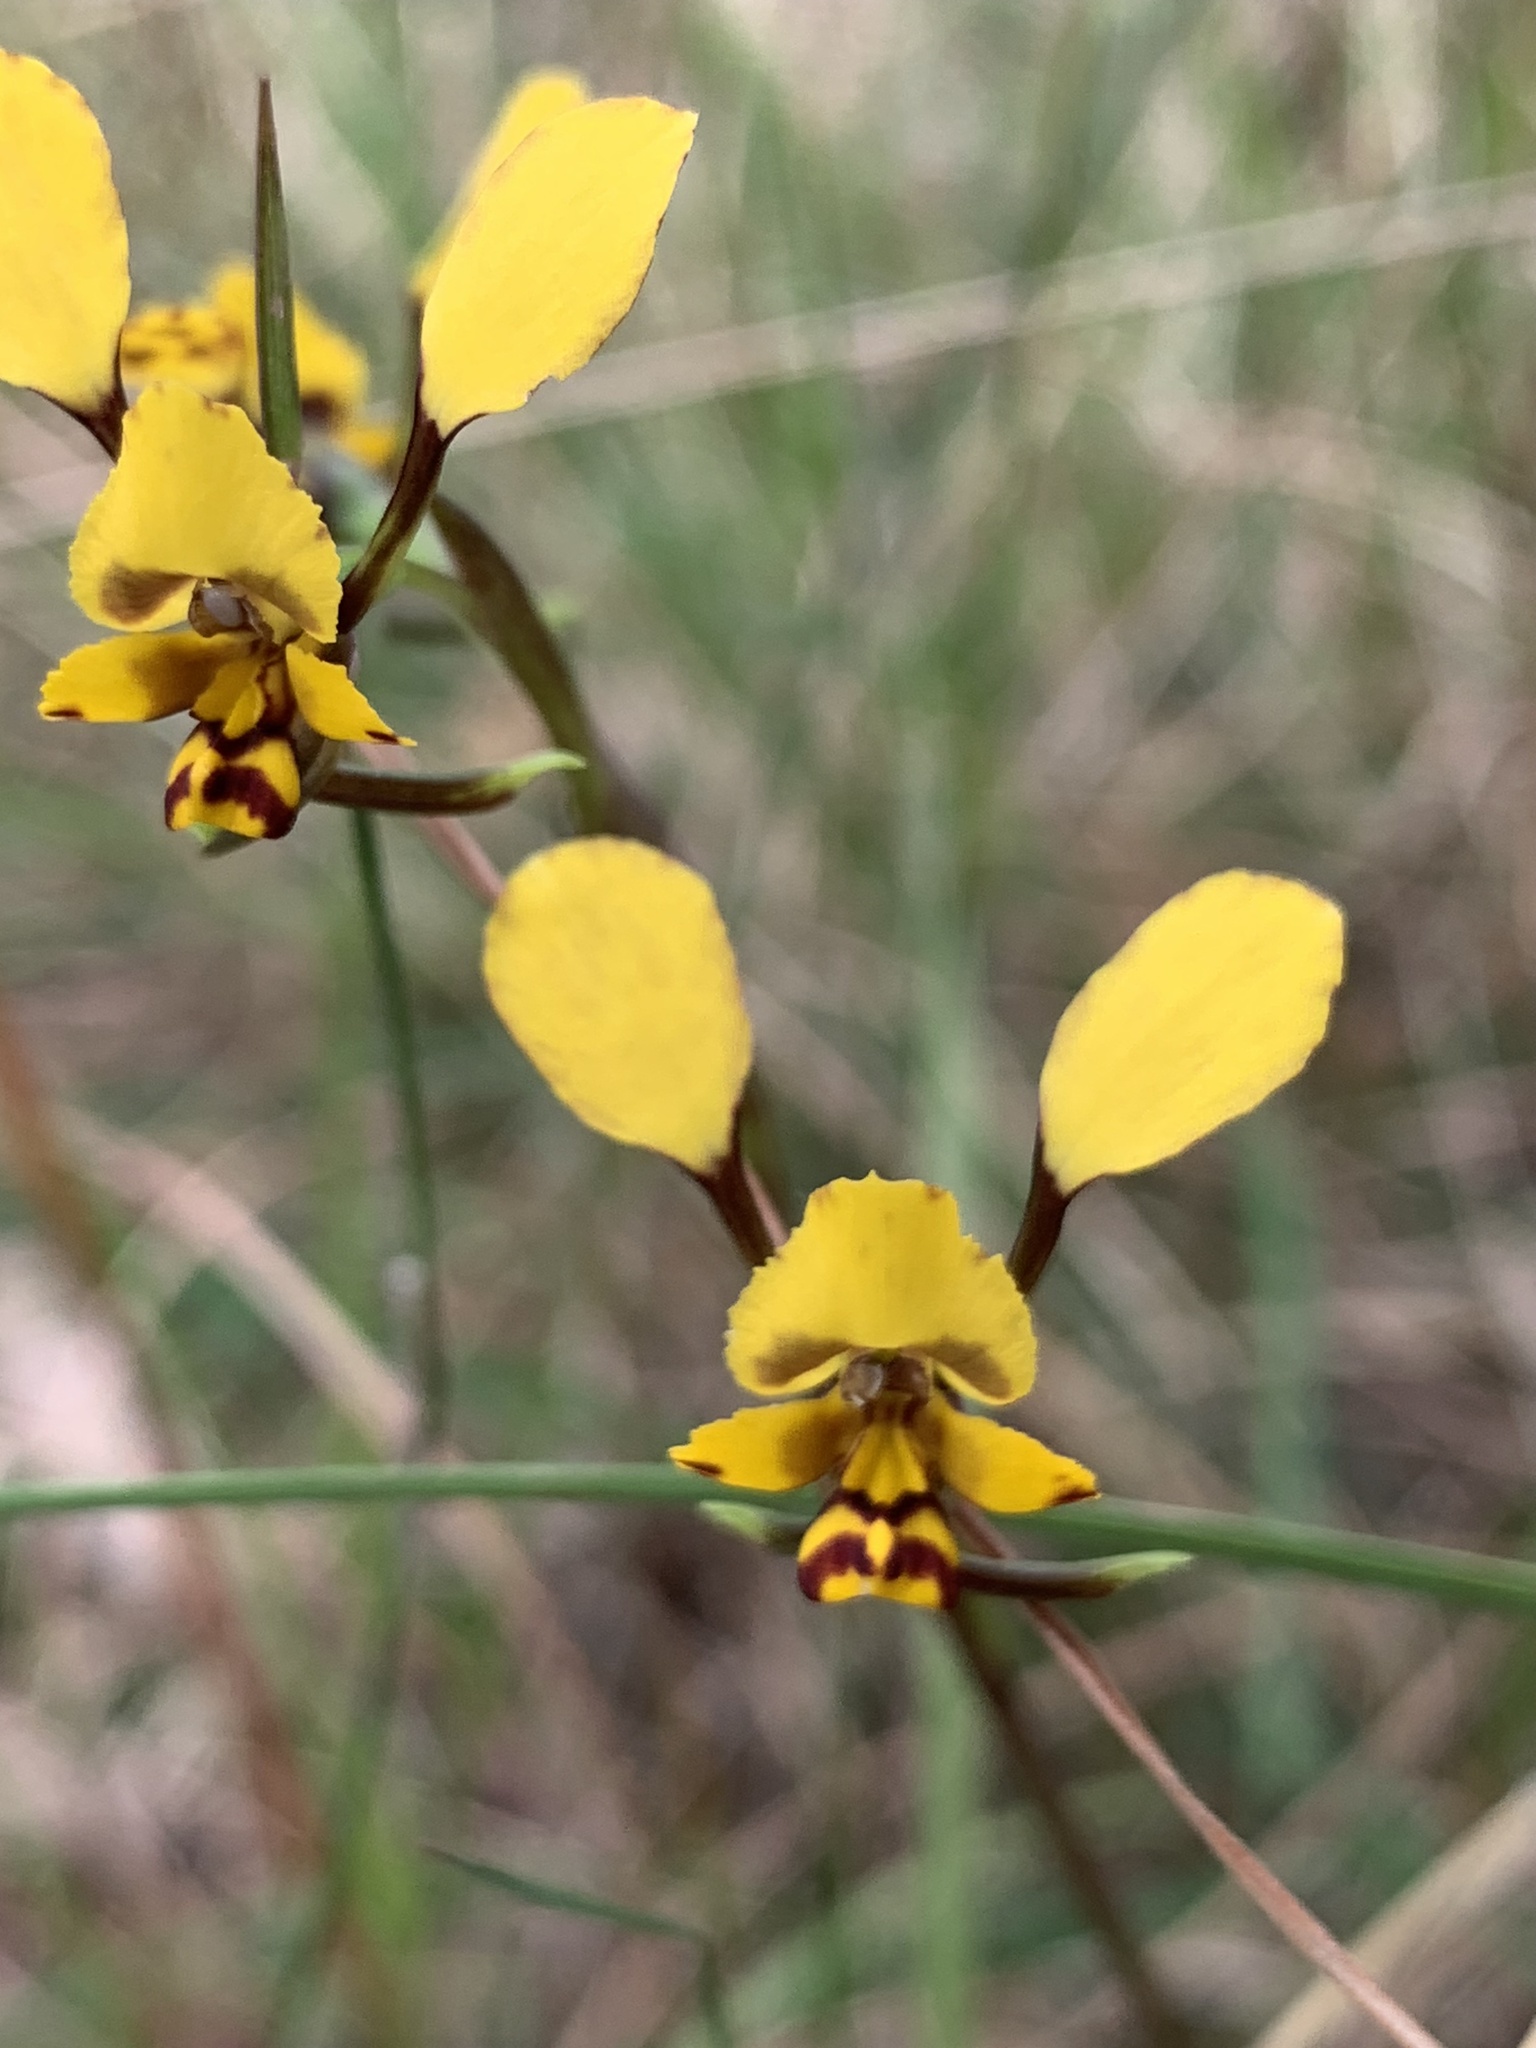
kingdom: Plantae
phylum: Tracheophyta
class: Liliopsida
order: Asparagales
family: Orchidaceae
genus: Diuris
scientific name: Diuris maculata
